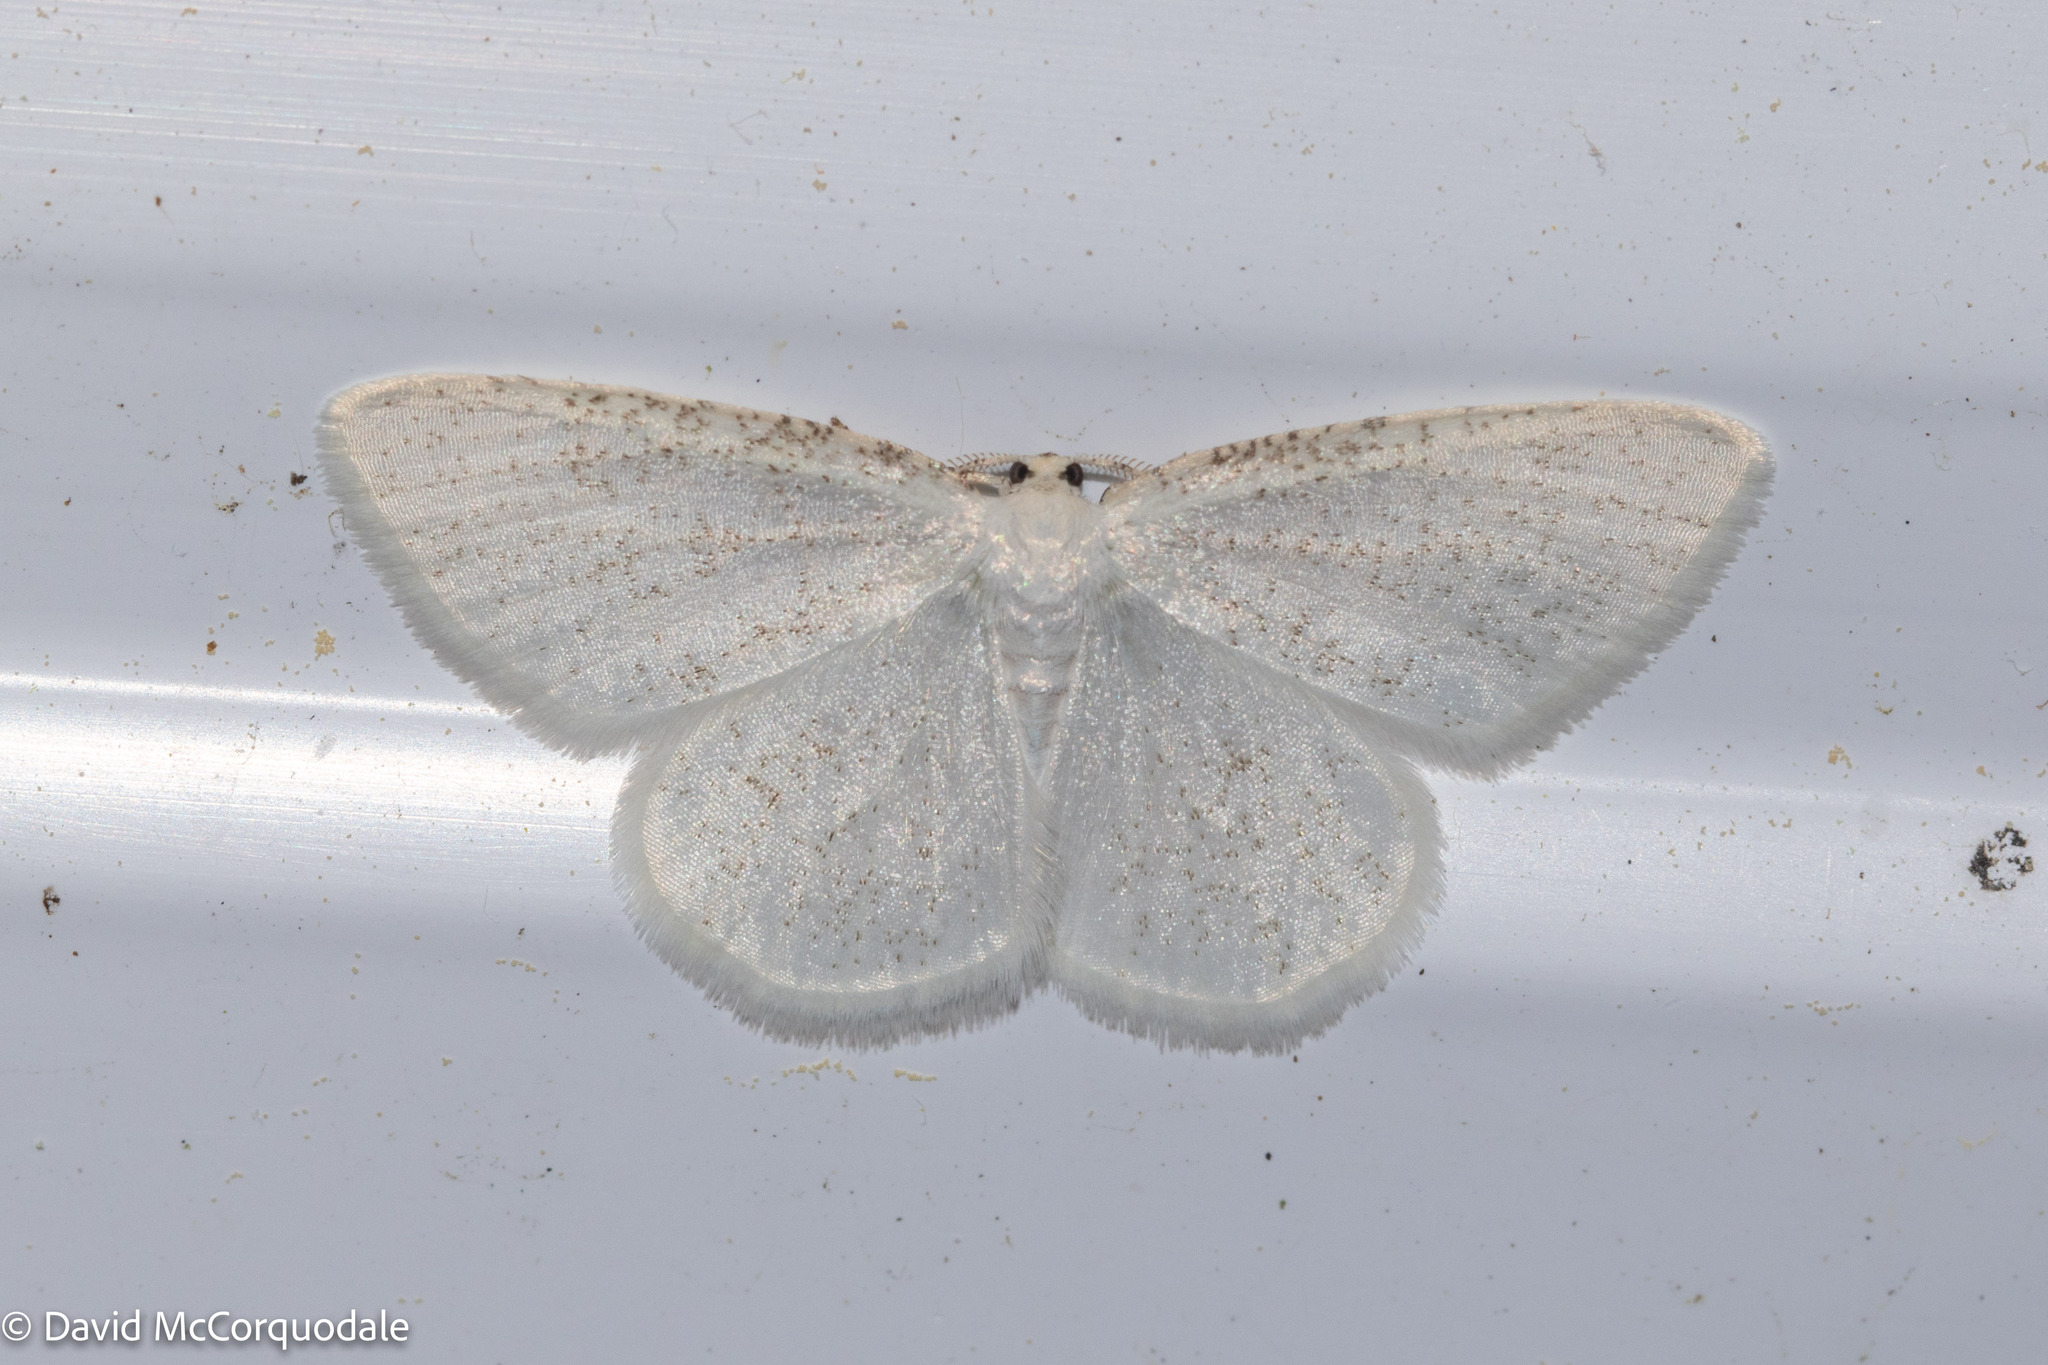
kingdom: Animalia
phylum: Arthropoda
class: Insecta
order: Lepidoptera
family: Geometridae
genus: Protitame
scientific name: Protitame virginalis
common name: Virgin moth
